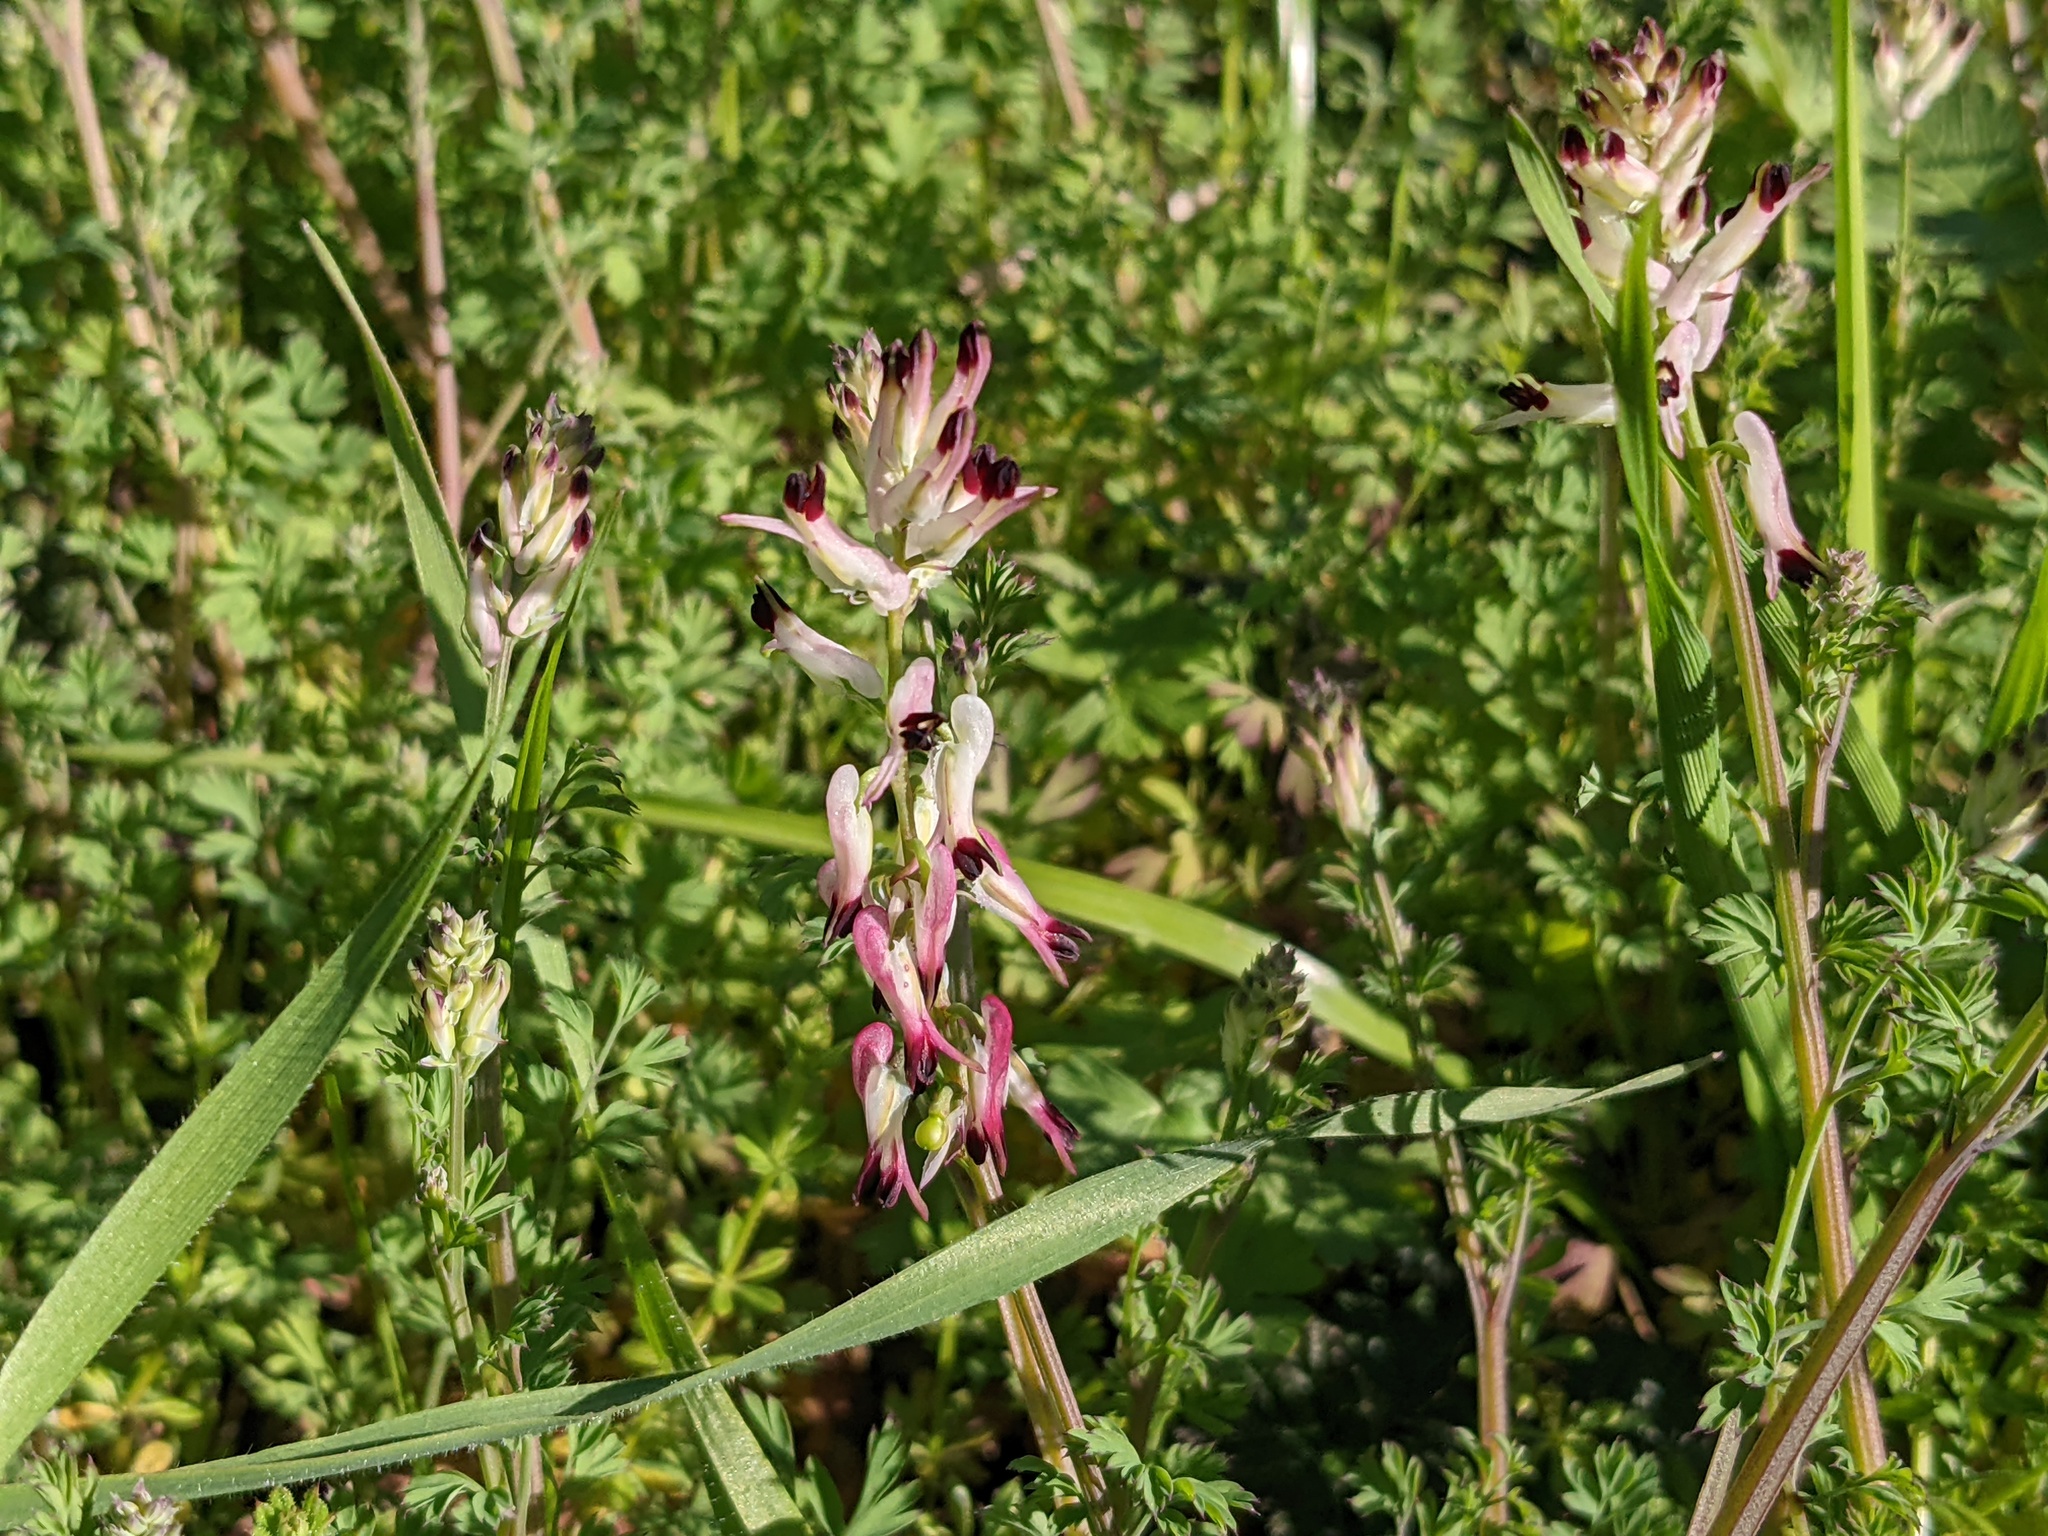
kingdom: Plantae
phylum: Tracheophyta
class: Magnoliopsida
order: Ranunculales
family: Papaveraceae
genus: Fumaria
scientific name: Fumaria capreolata
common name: White ramping-fumitory
